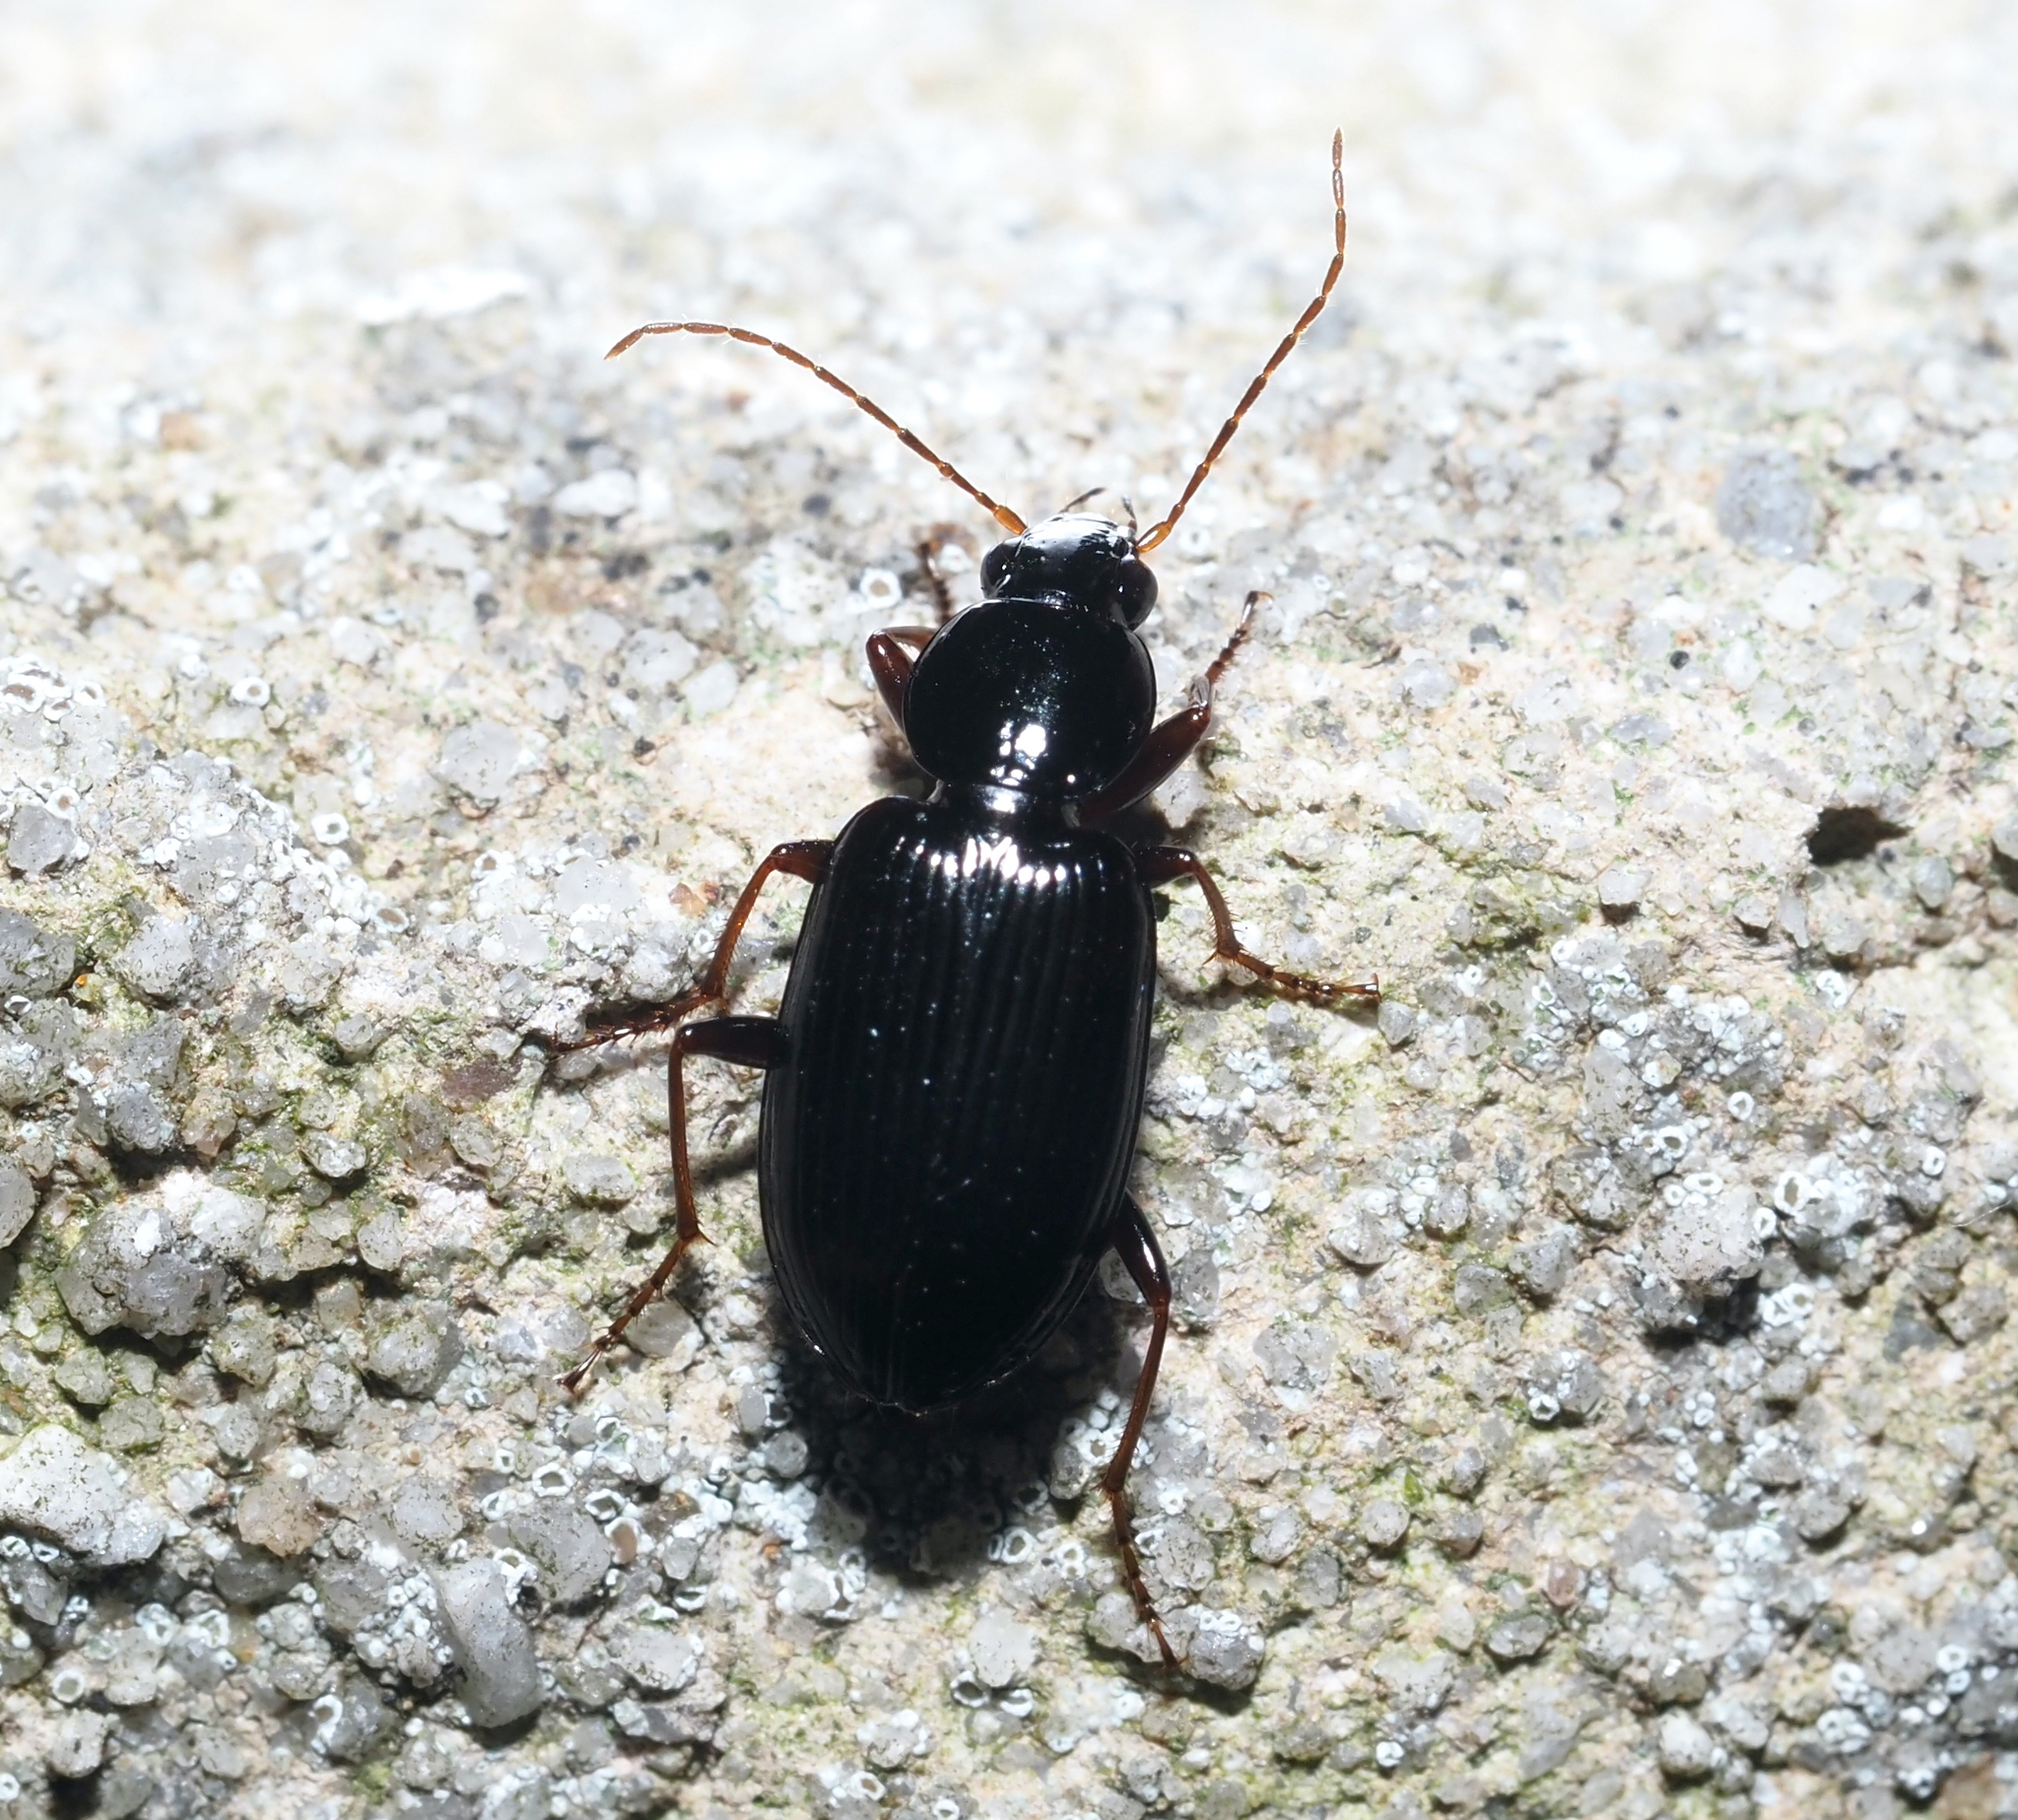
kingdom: Animalia
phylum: Arthropoda
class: Insecta
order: Coleoptera
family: Carabidae
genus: Agonum
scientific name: Agonum punctiforme
